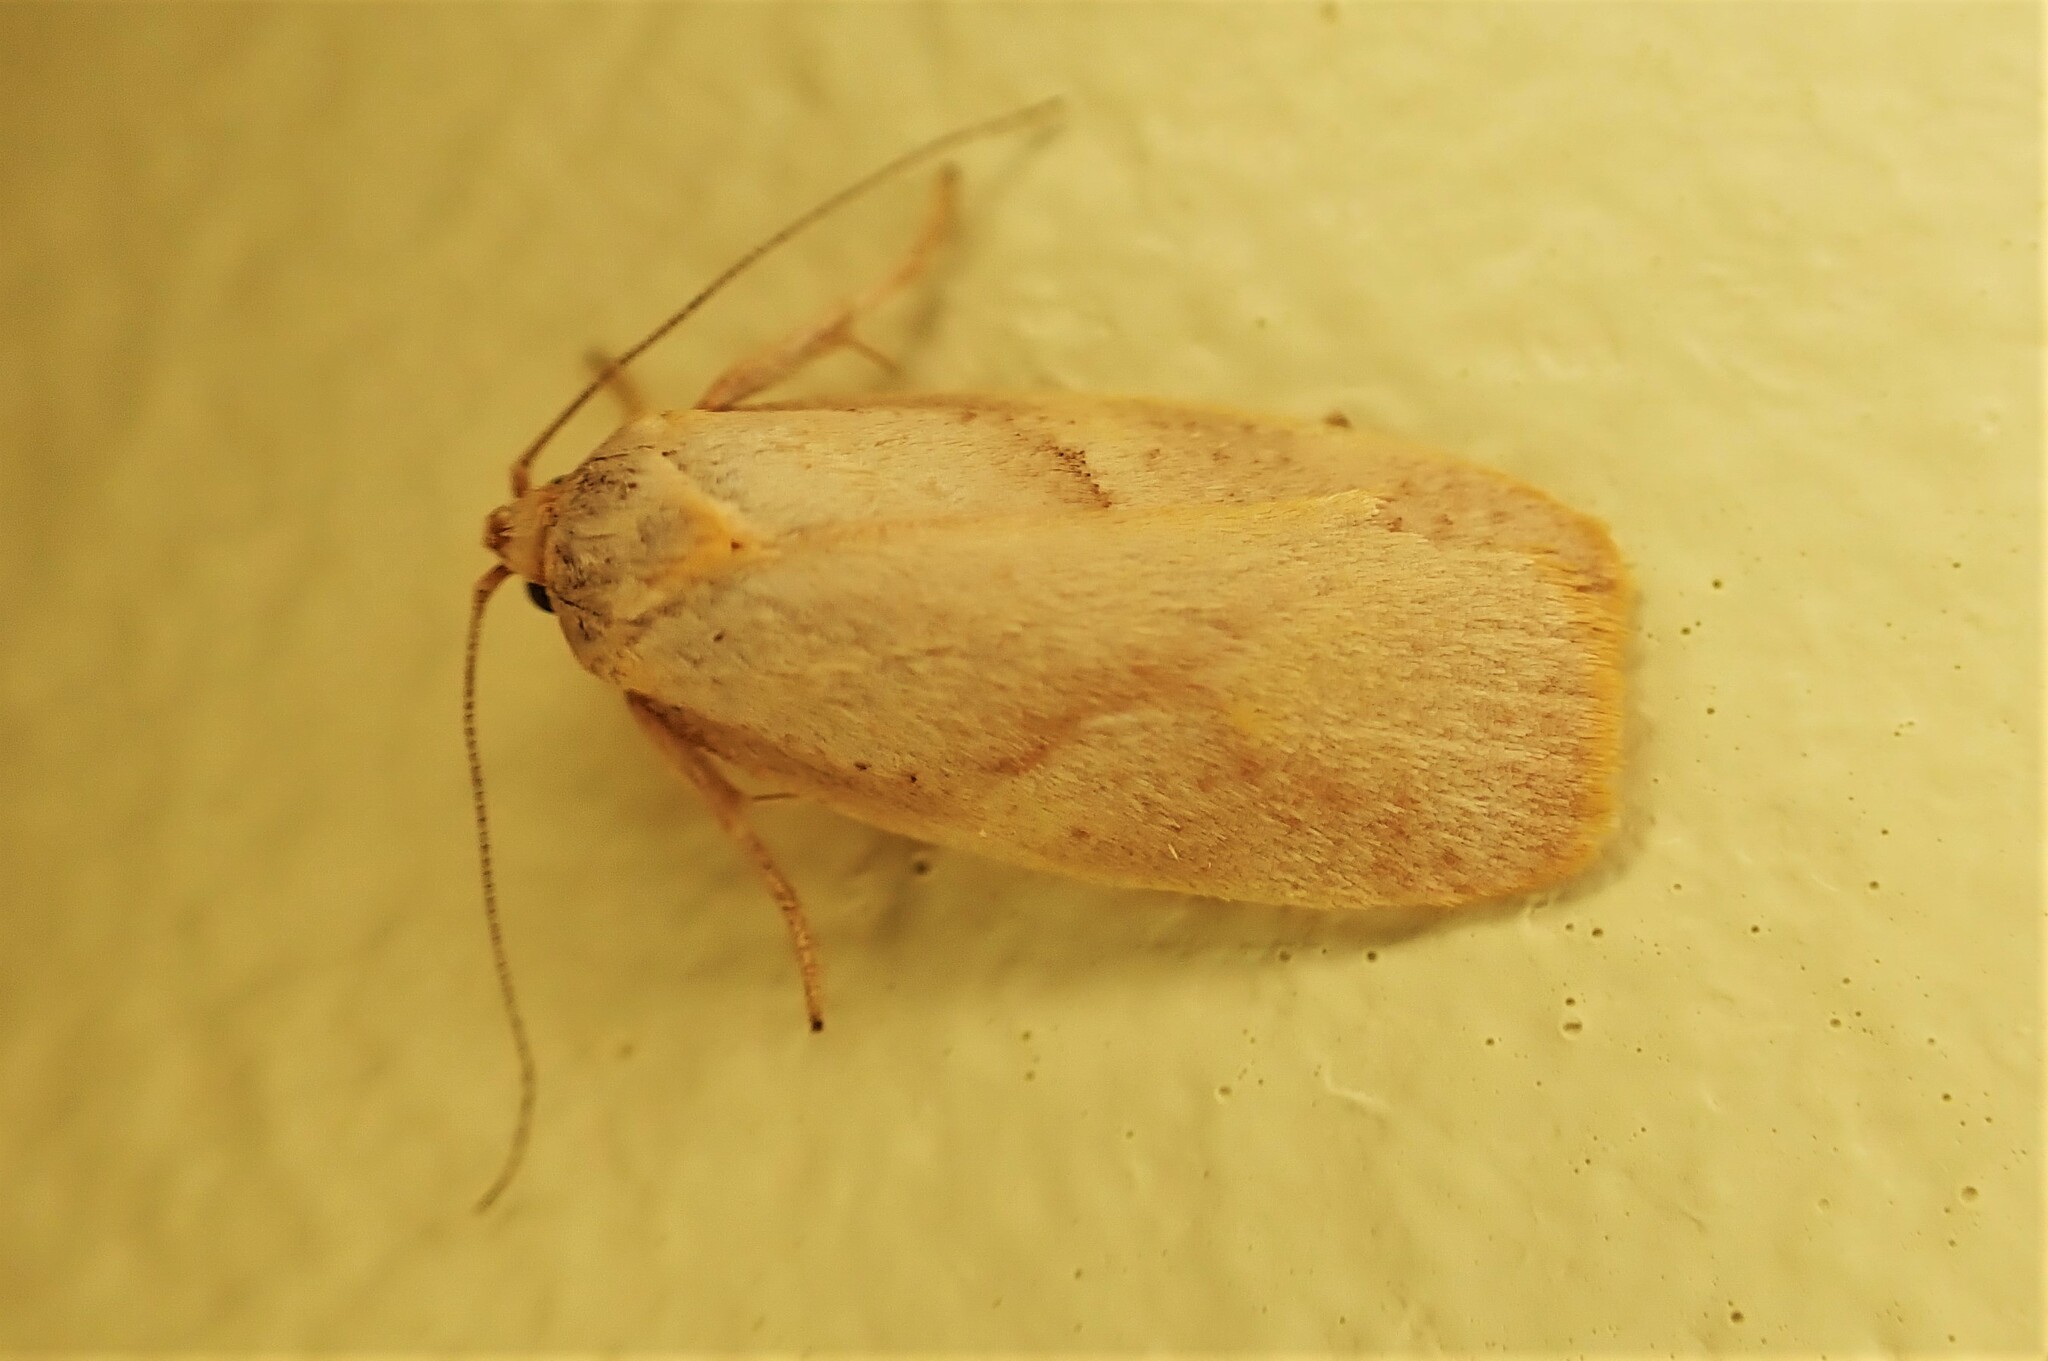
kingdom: Animalia
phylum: Arthropoda
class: Insecta
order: Lepidoptera
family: Oecophoridae
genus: Proteodes
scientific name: Proteodes carnifex
